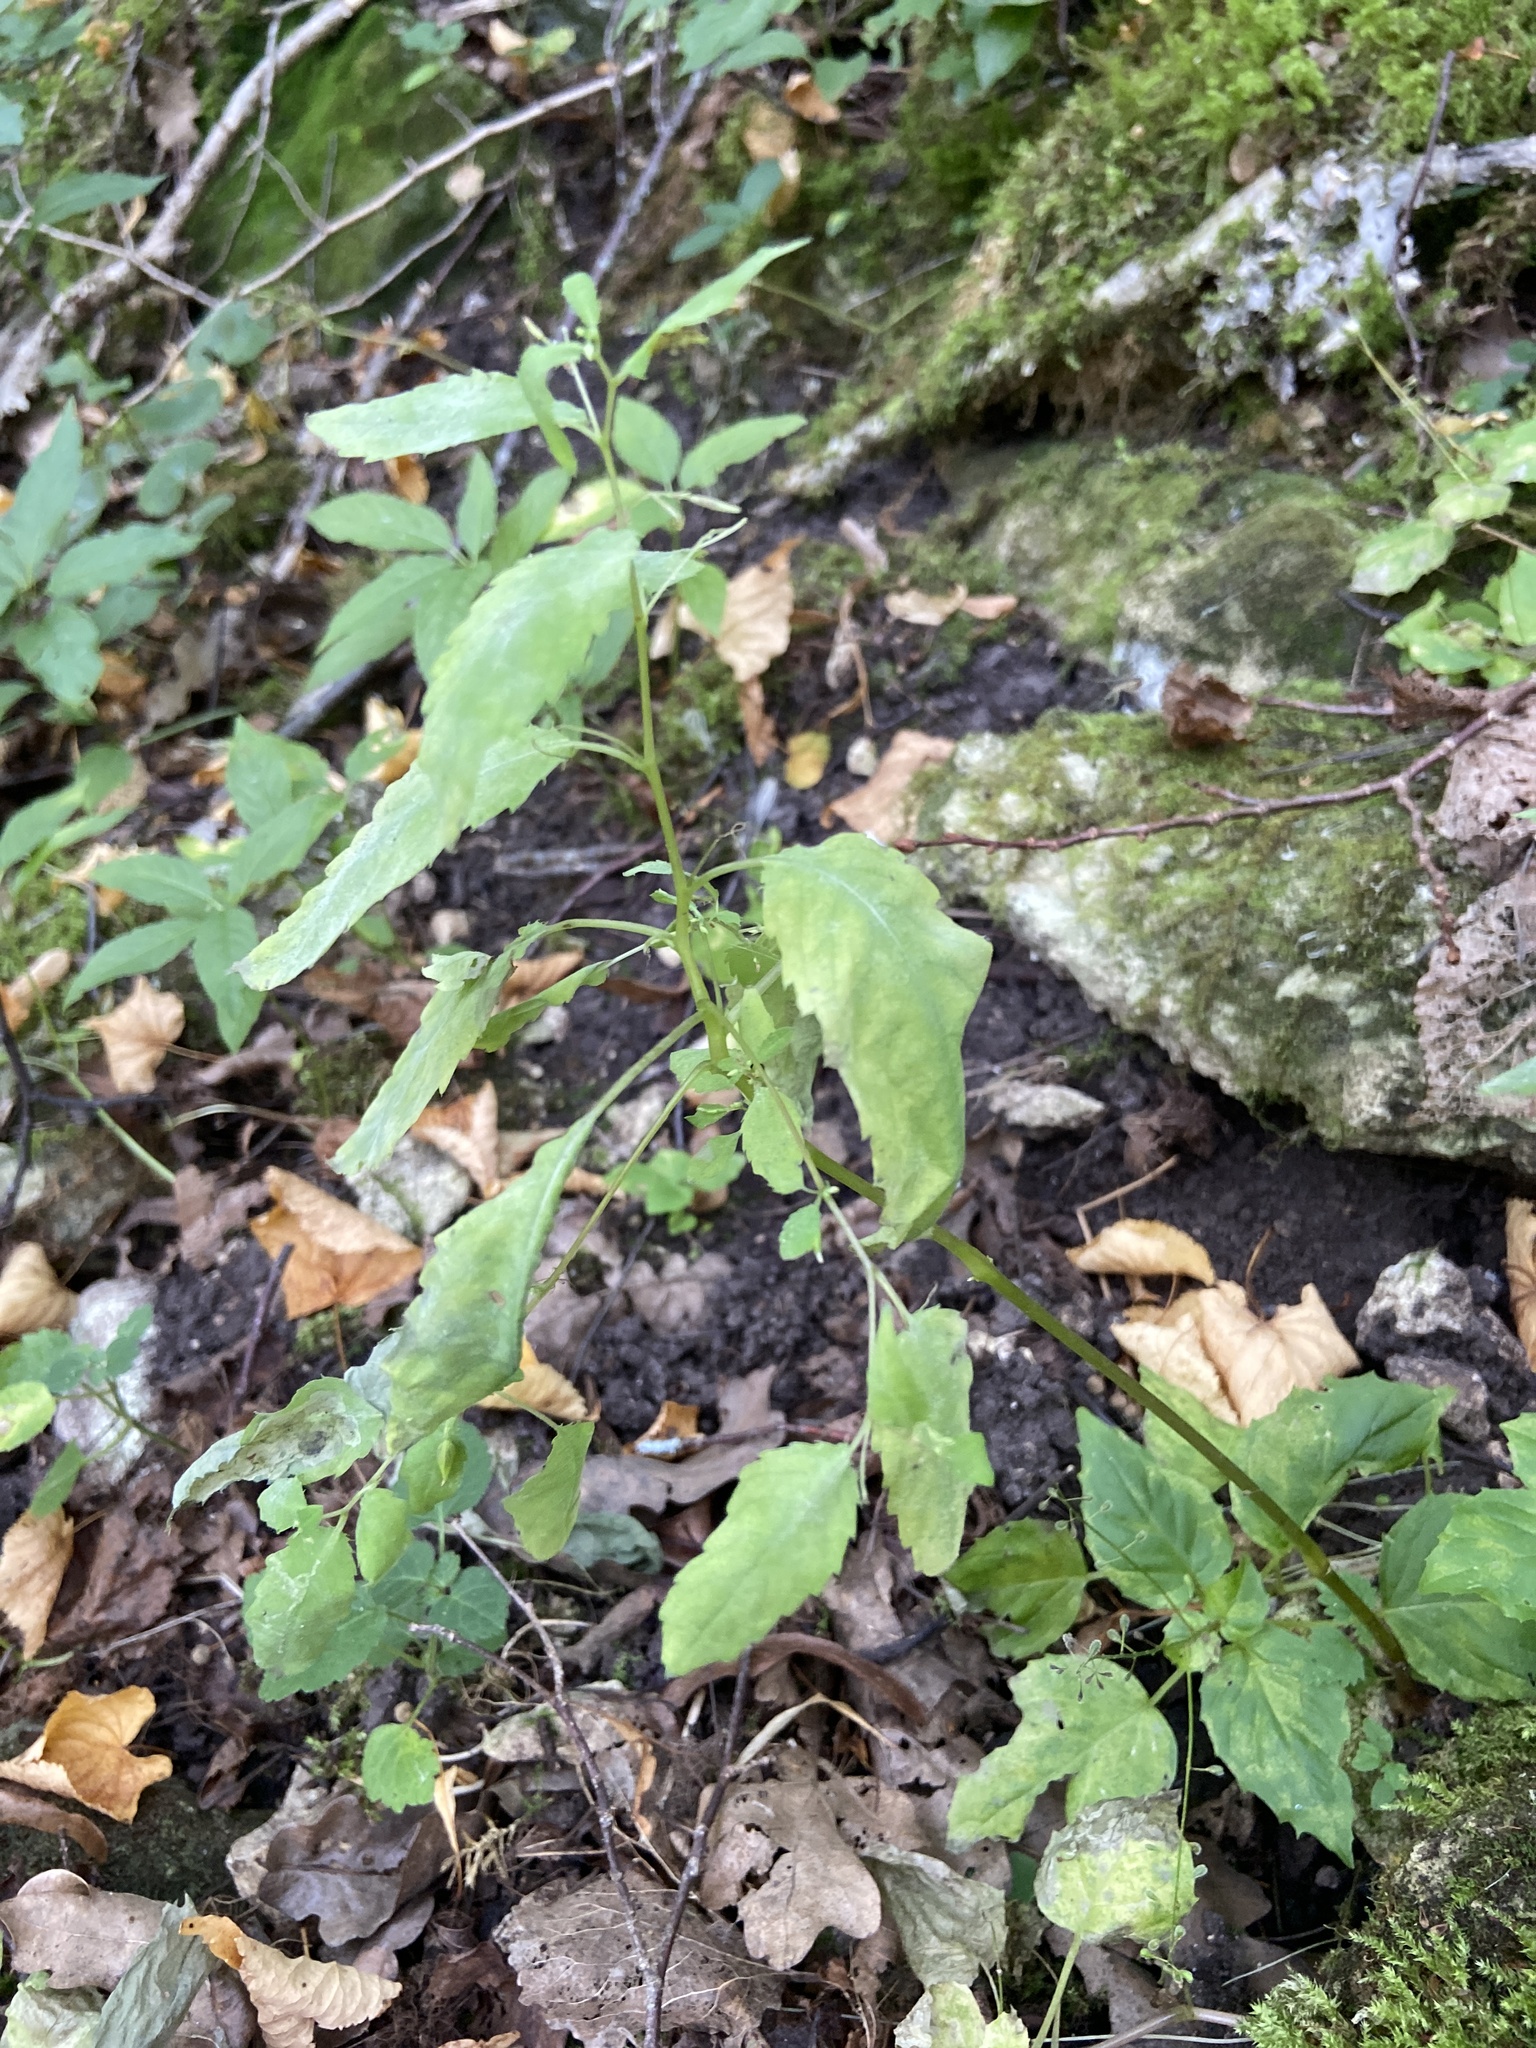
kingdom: Plantae
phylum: Tracheophyta
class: Magnoliopsida
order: Ericales
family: Balsaminaceae
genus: Impatiens
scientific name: Impatiens noli-tangere
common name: Touch-me-not balsam
